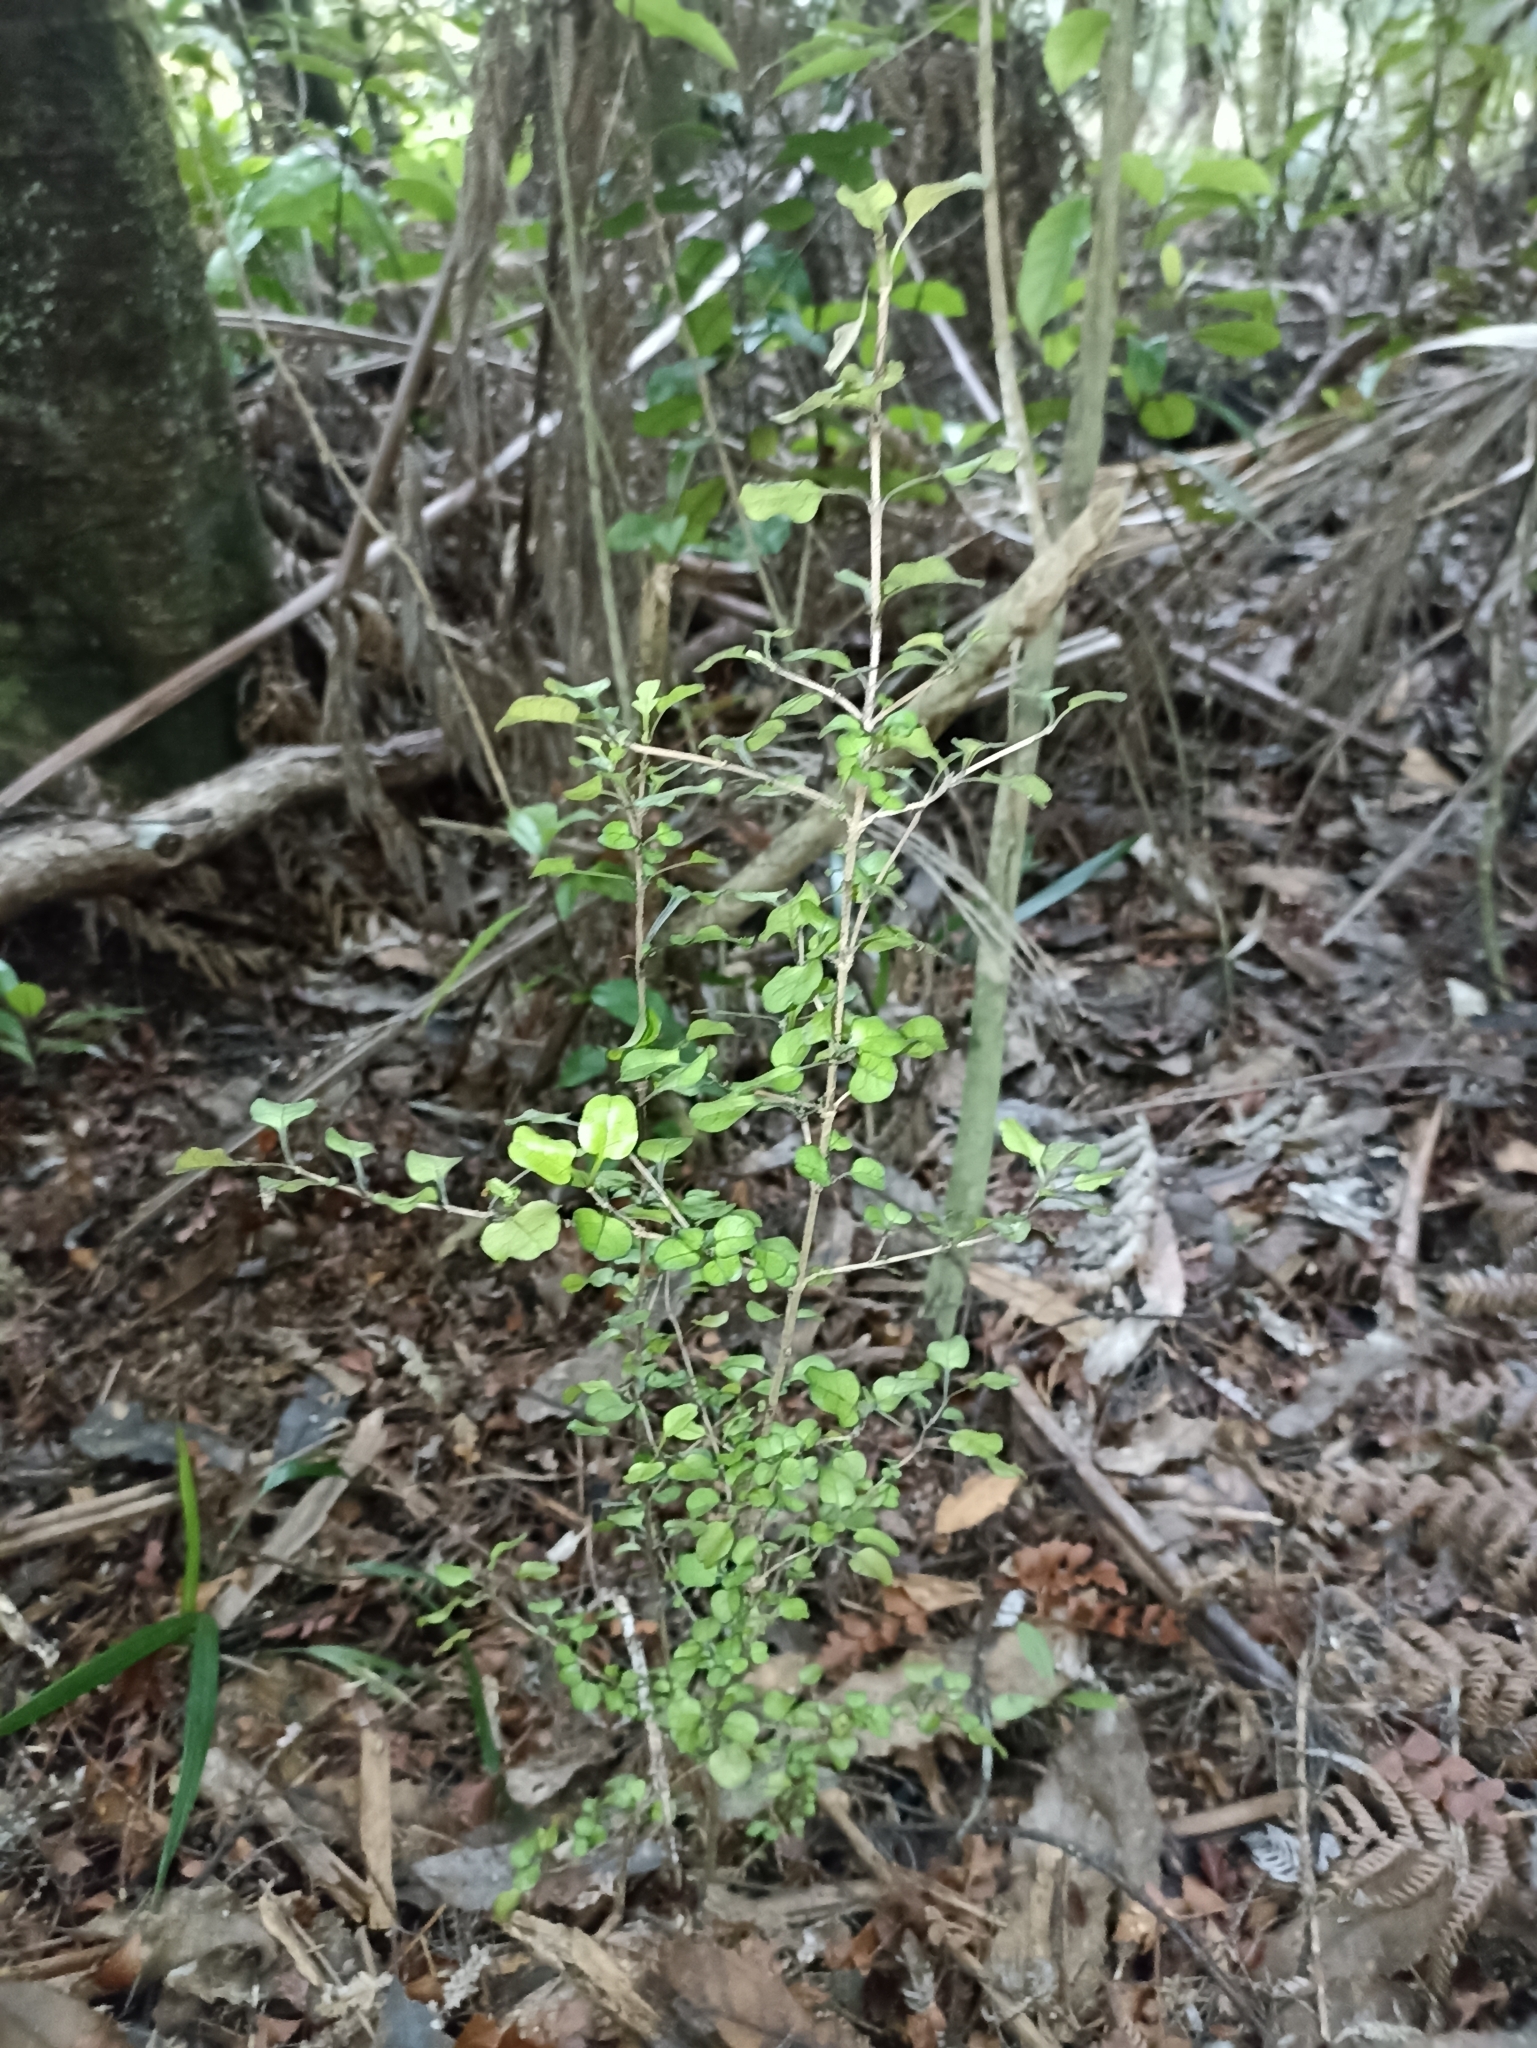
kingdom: Plantae
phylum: Tracheophyta
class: Magnoliopsida
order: Gentianales
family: Rubiaceae
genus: Coprosma
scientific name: Coprosma arborea
